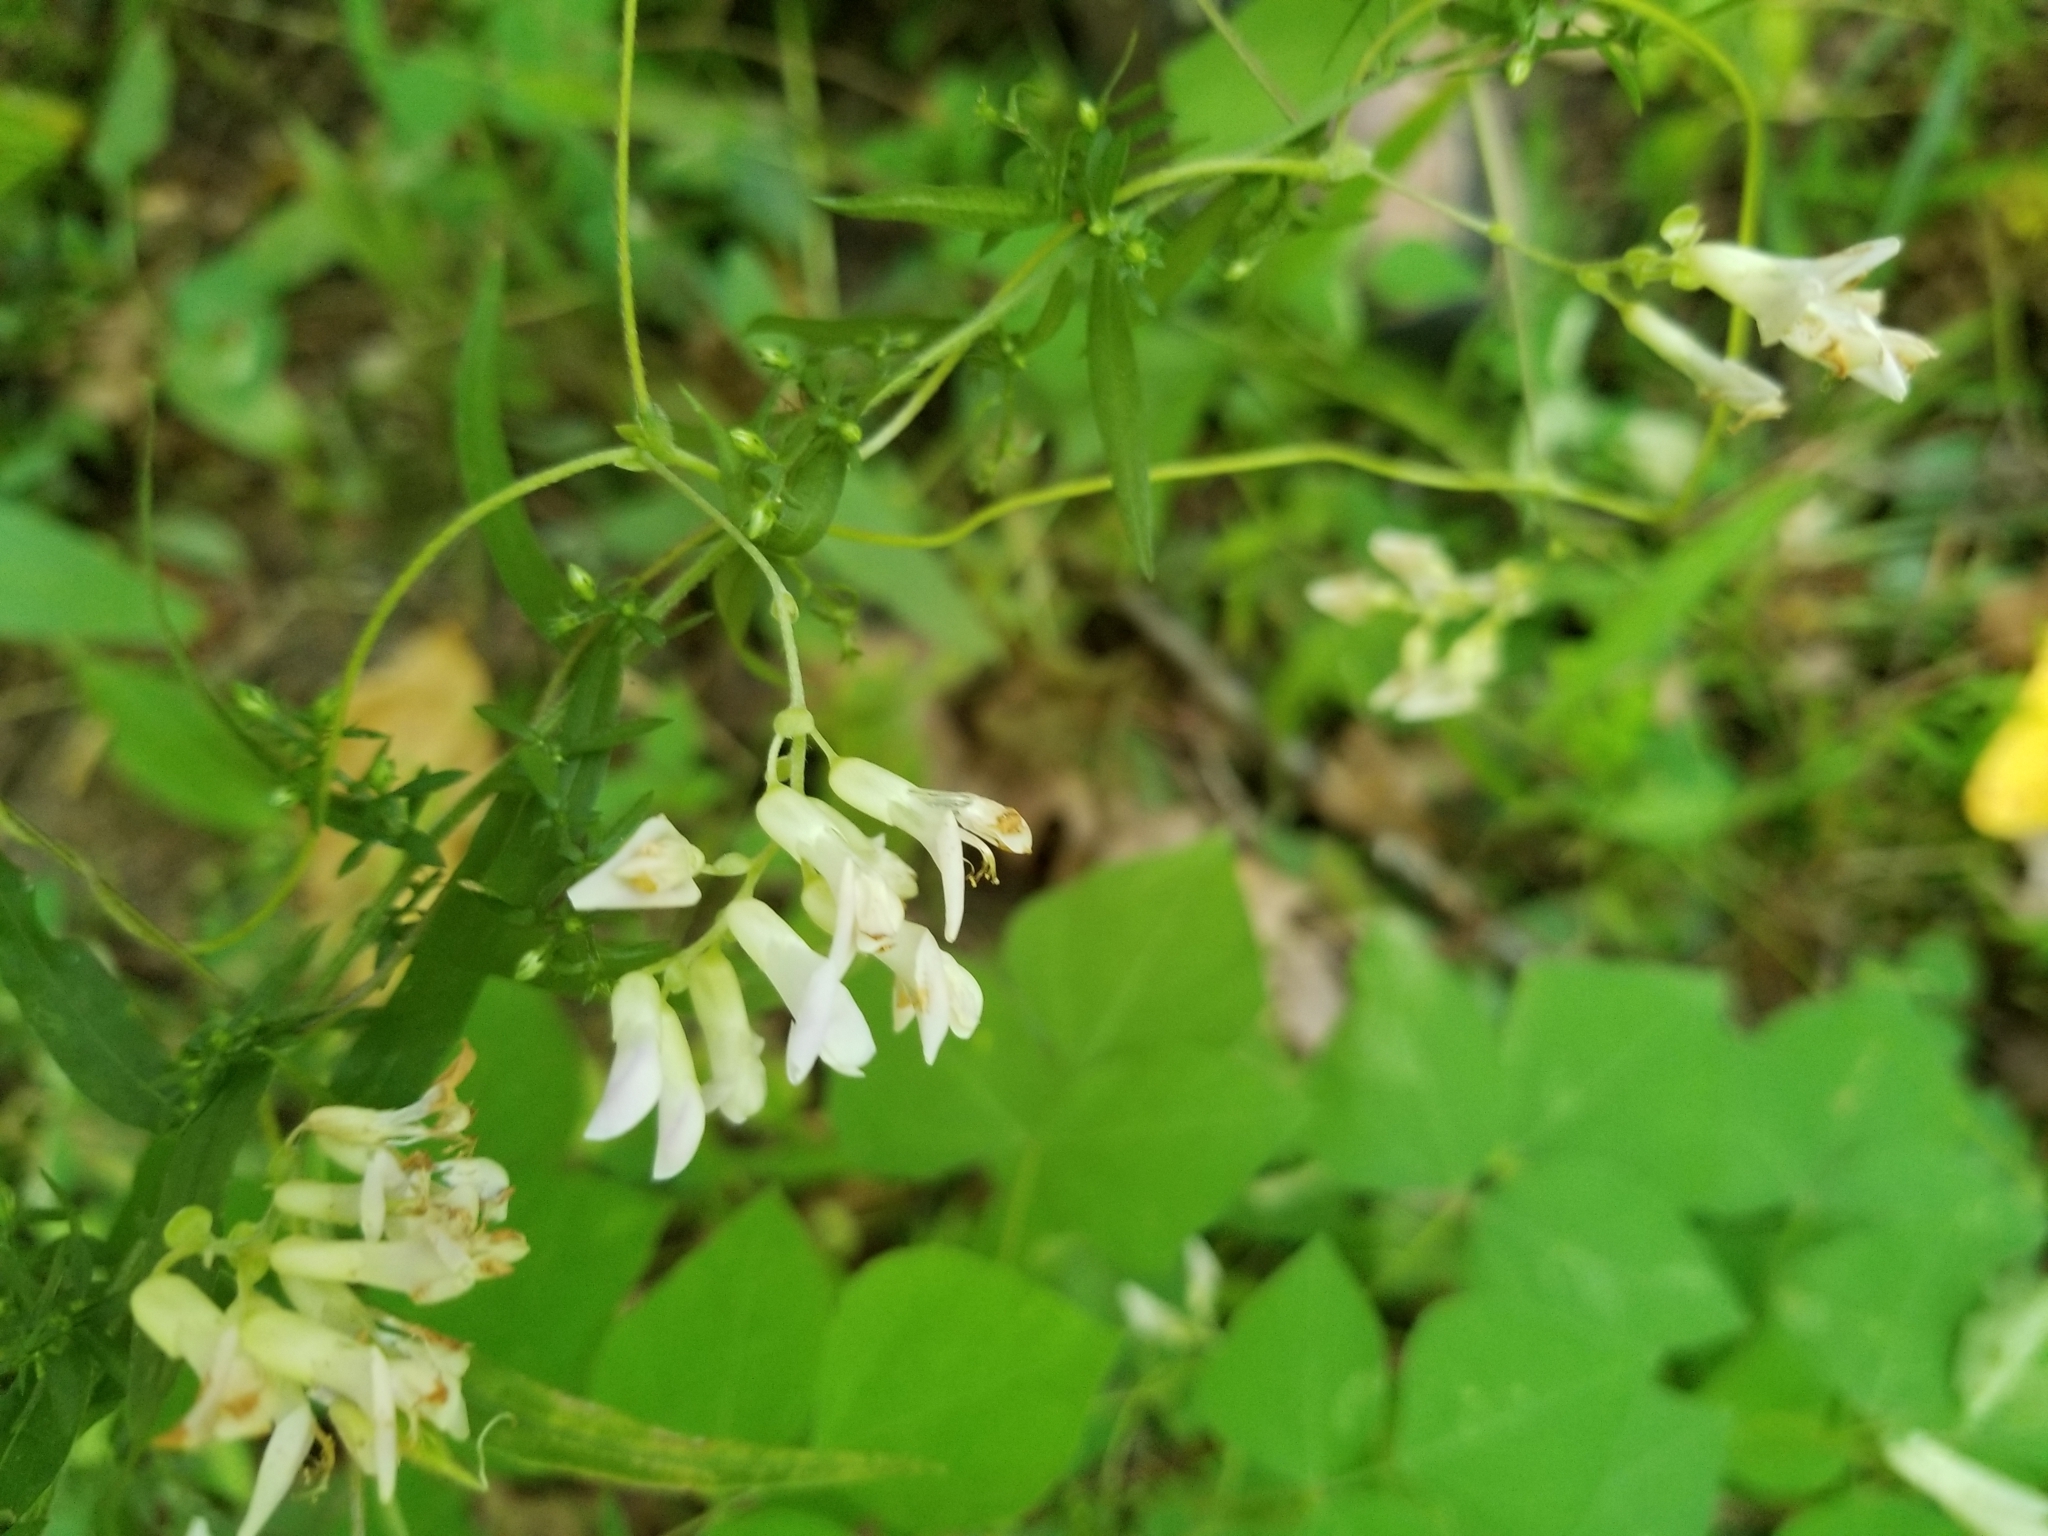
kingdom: Plantae
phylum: Tracheophyta
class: Magnoliopsida
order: Fabales
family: Fabaceae
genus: Amphicarpaea
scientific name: Amphicarpaea bracteata
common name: American hog peanut
